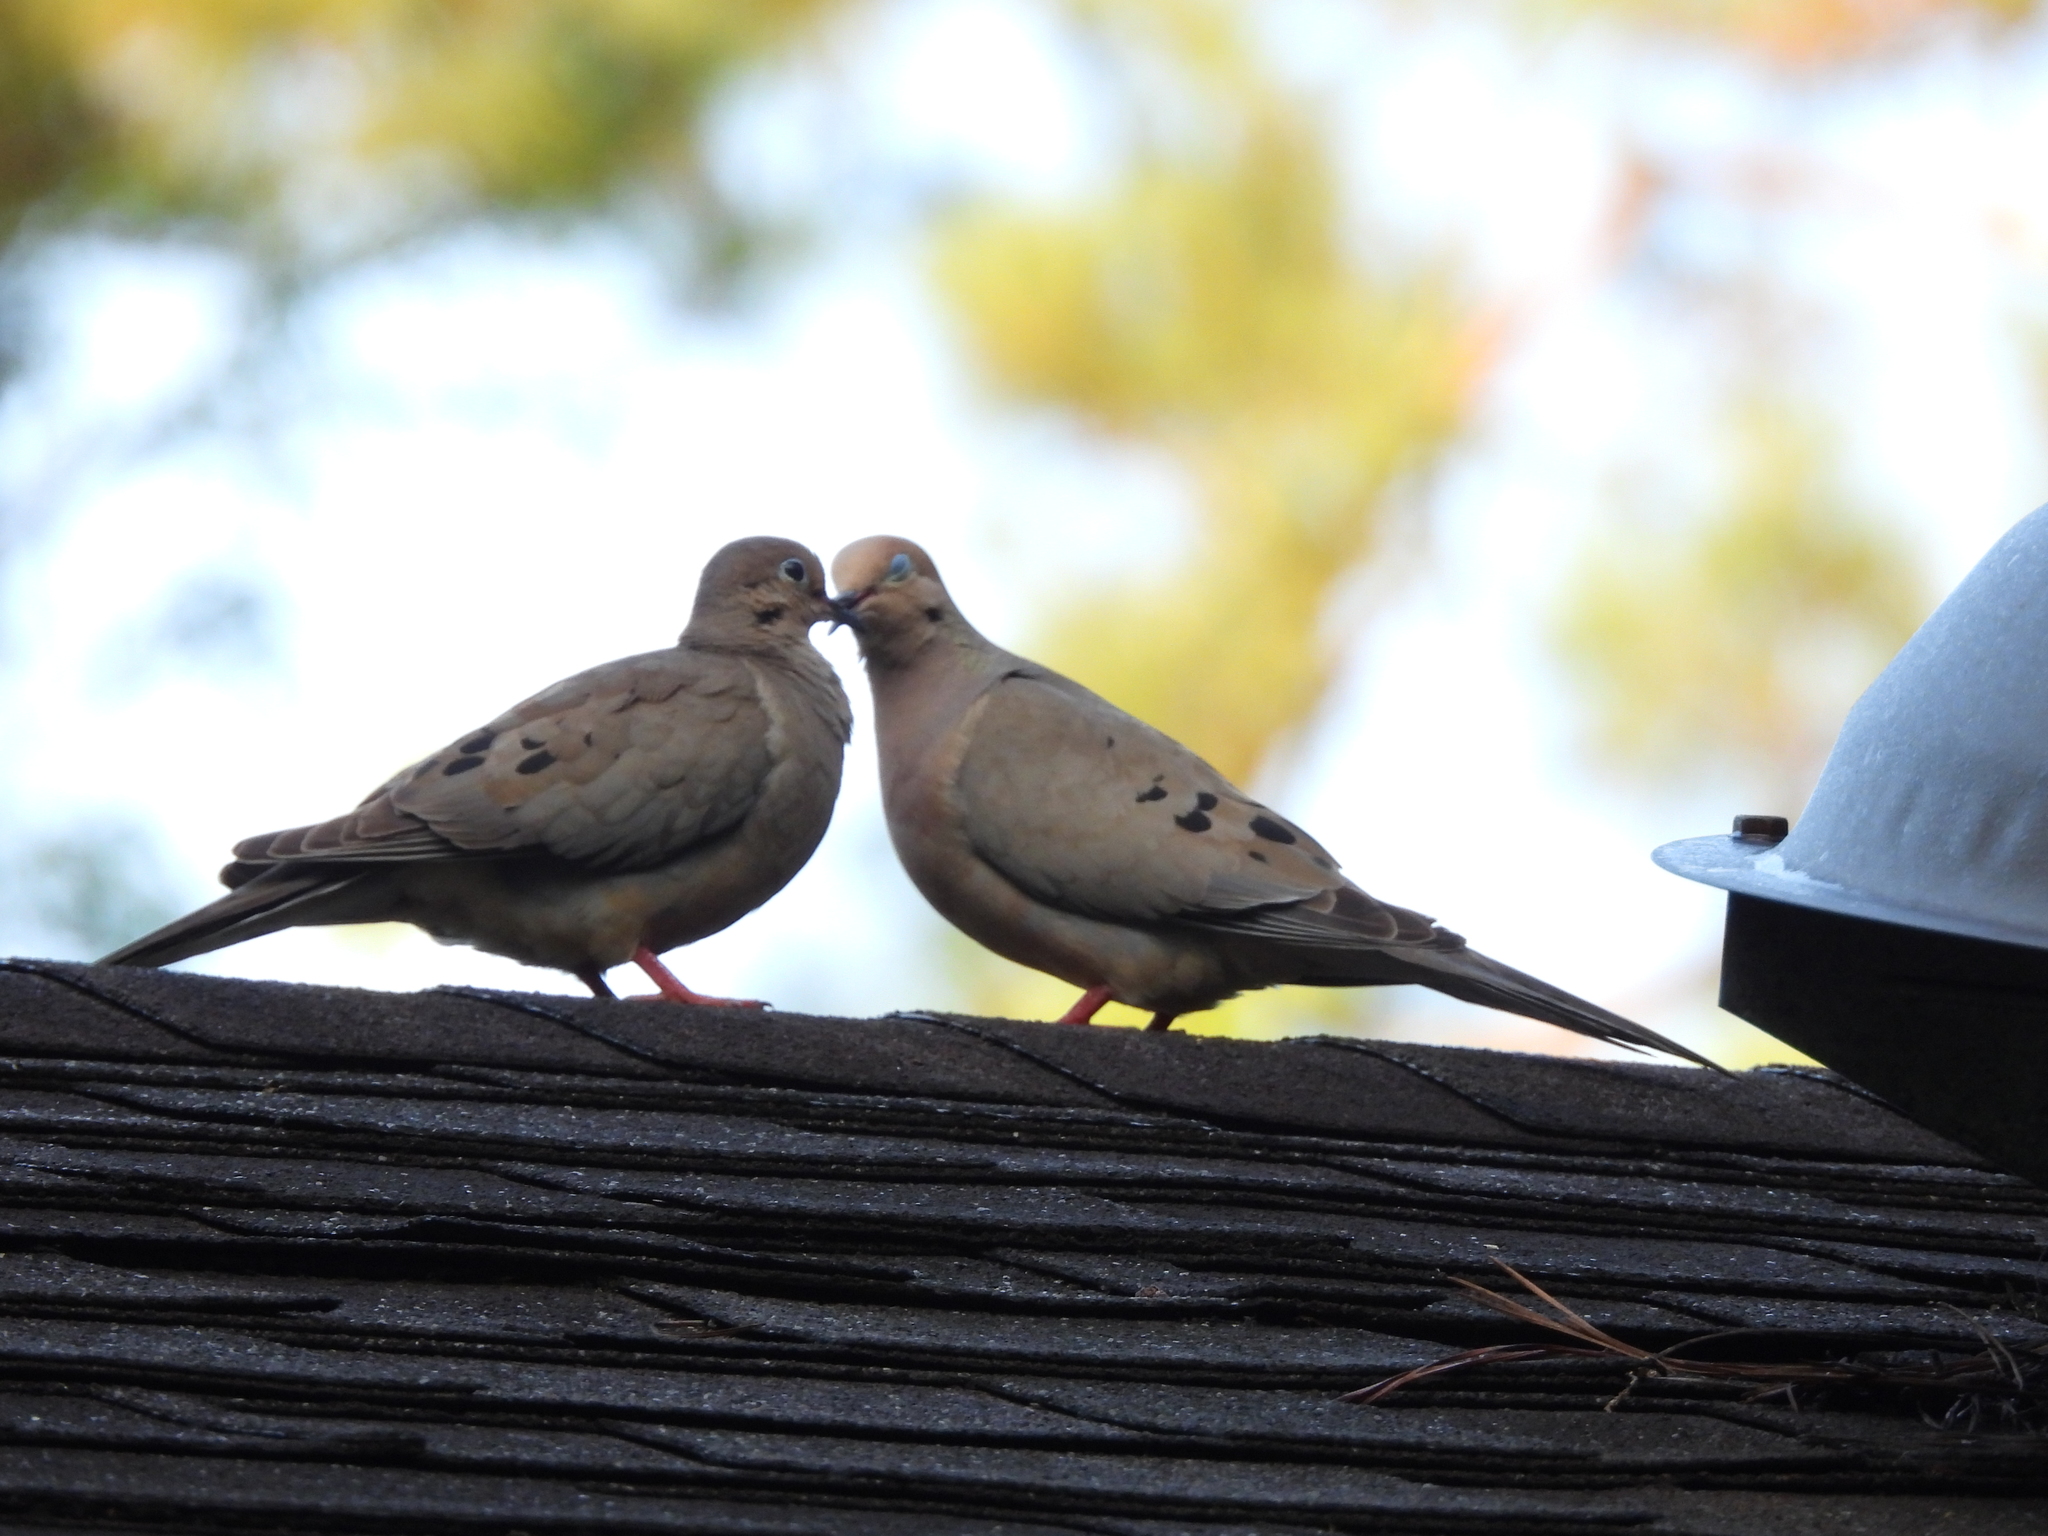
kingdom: Animalia
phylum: Chordata
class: Aves
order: Columbiformes
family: Columbidae
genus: Zenaida
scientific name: Zenaida macroura
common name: Mourning dove
